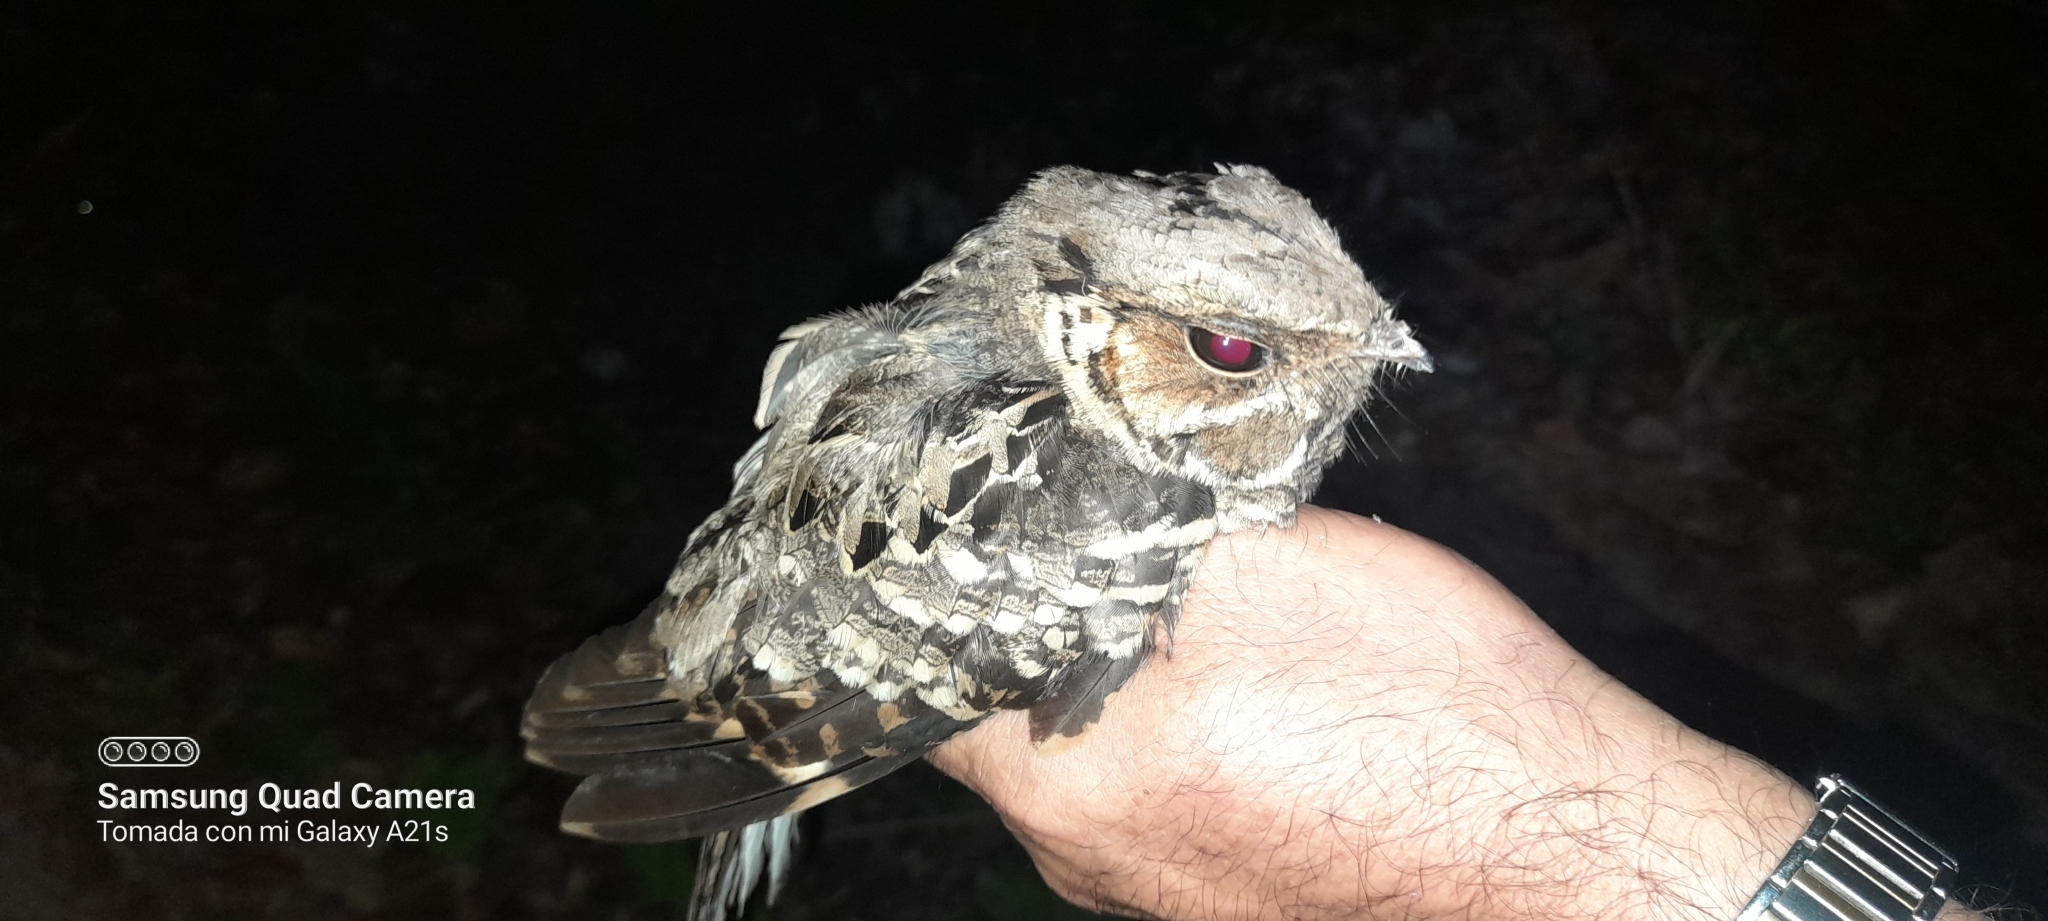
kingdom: Animalia
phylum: Chordata
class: Aves
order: Caprimulgiformes
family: Caprimulgidae
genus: Nyctidromus
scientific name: Nyctidromus albicollis
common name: Pauraque
